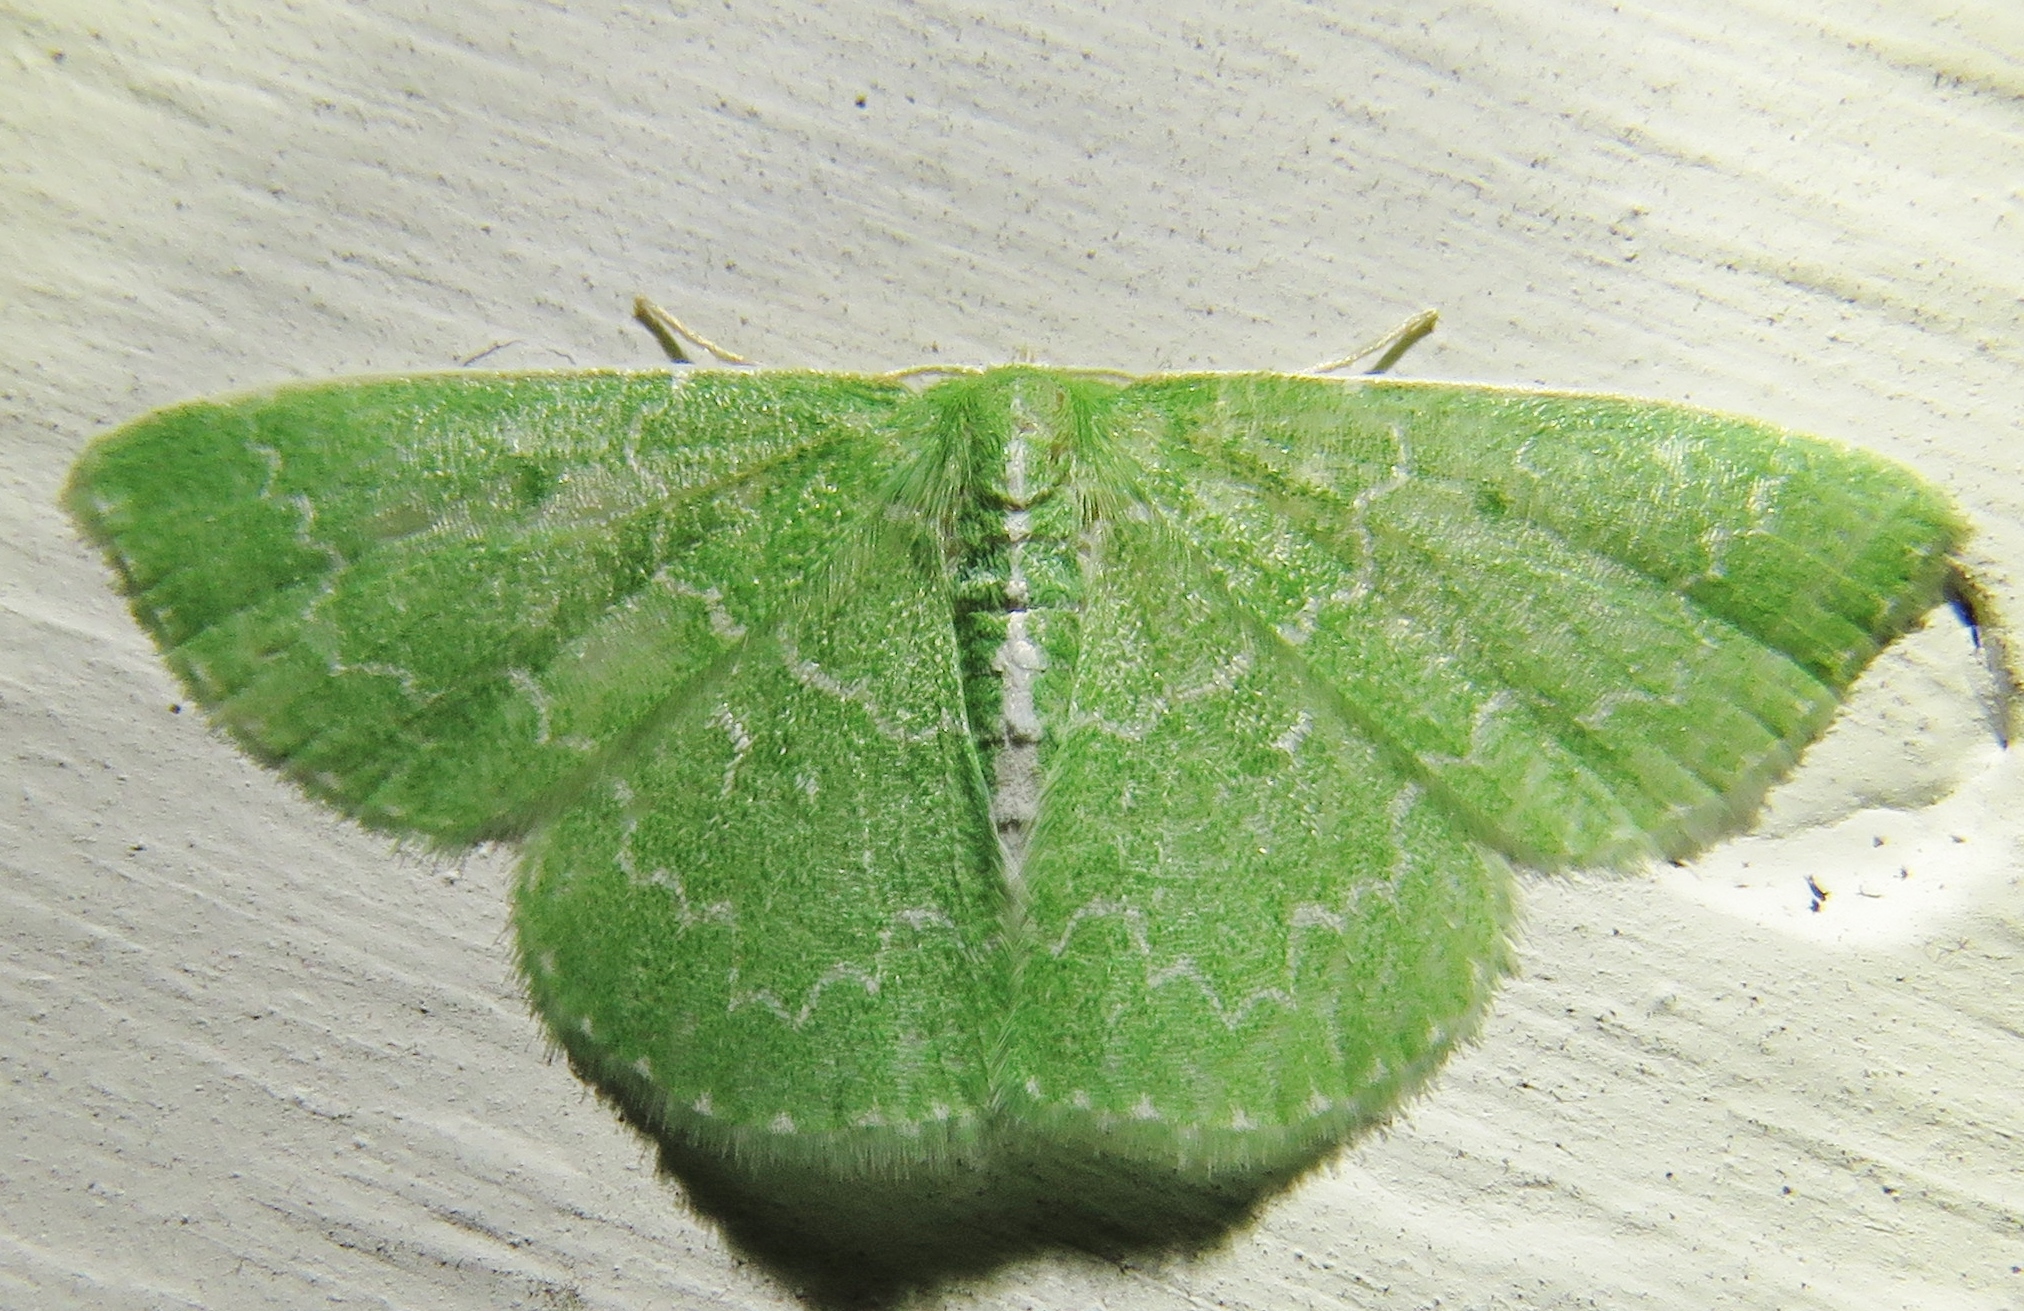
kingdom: Animalia
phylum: Arthropoda
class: Insecta
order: Lepidoptera
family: Geometridae
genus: Synchlora
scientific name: Synchlora frondaria
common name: Southern emerald
